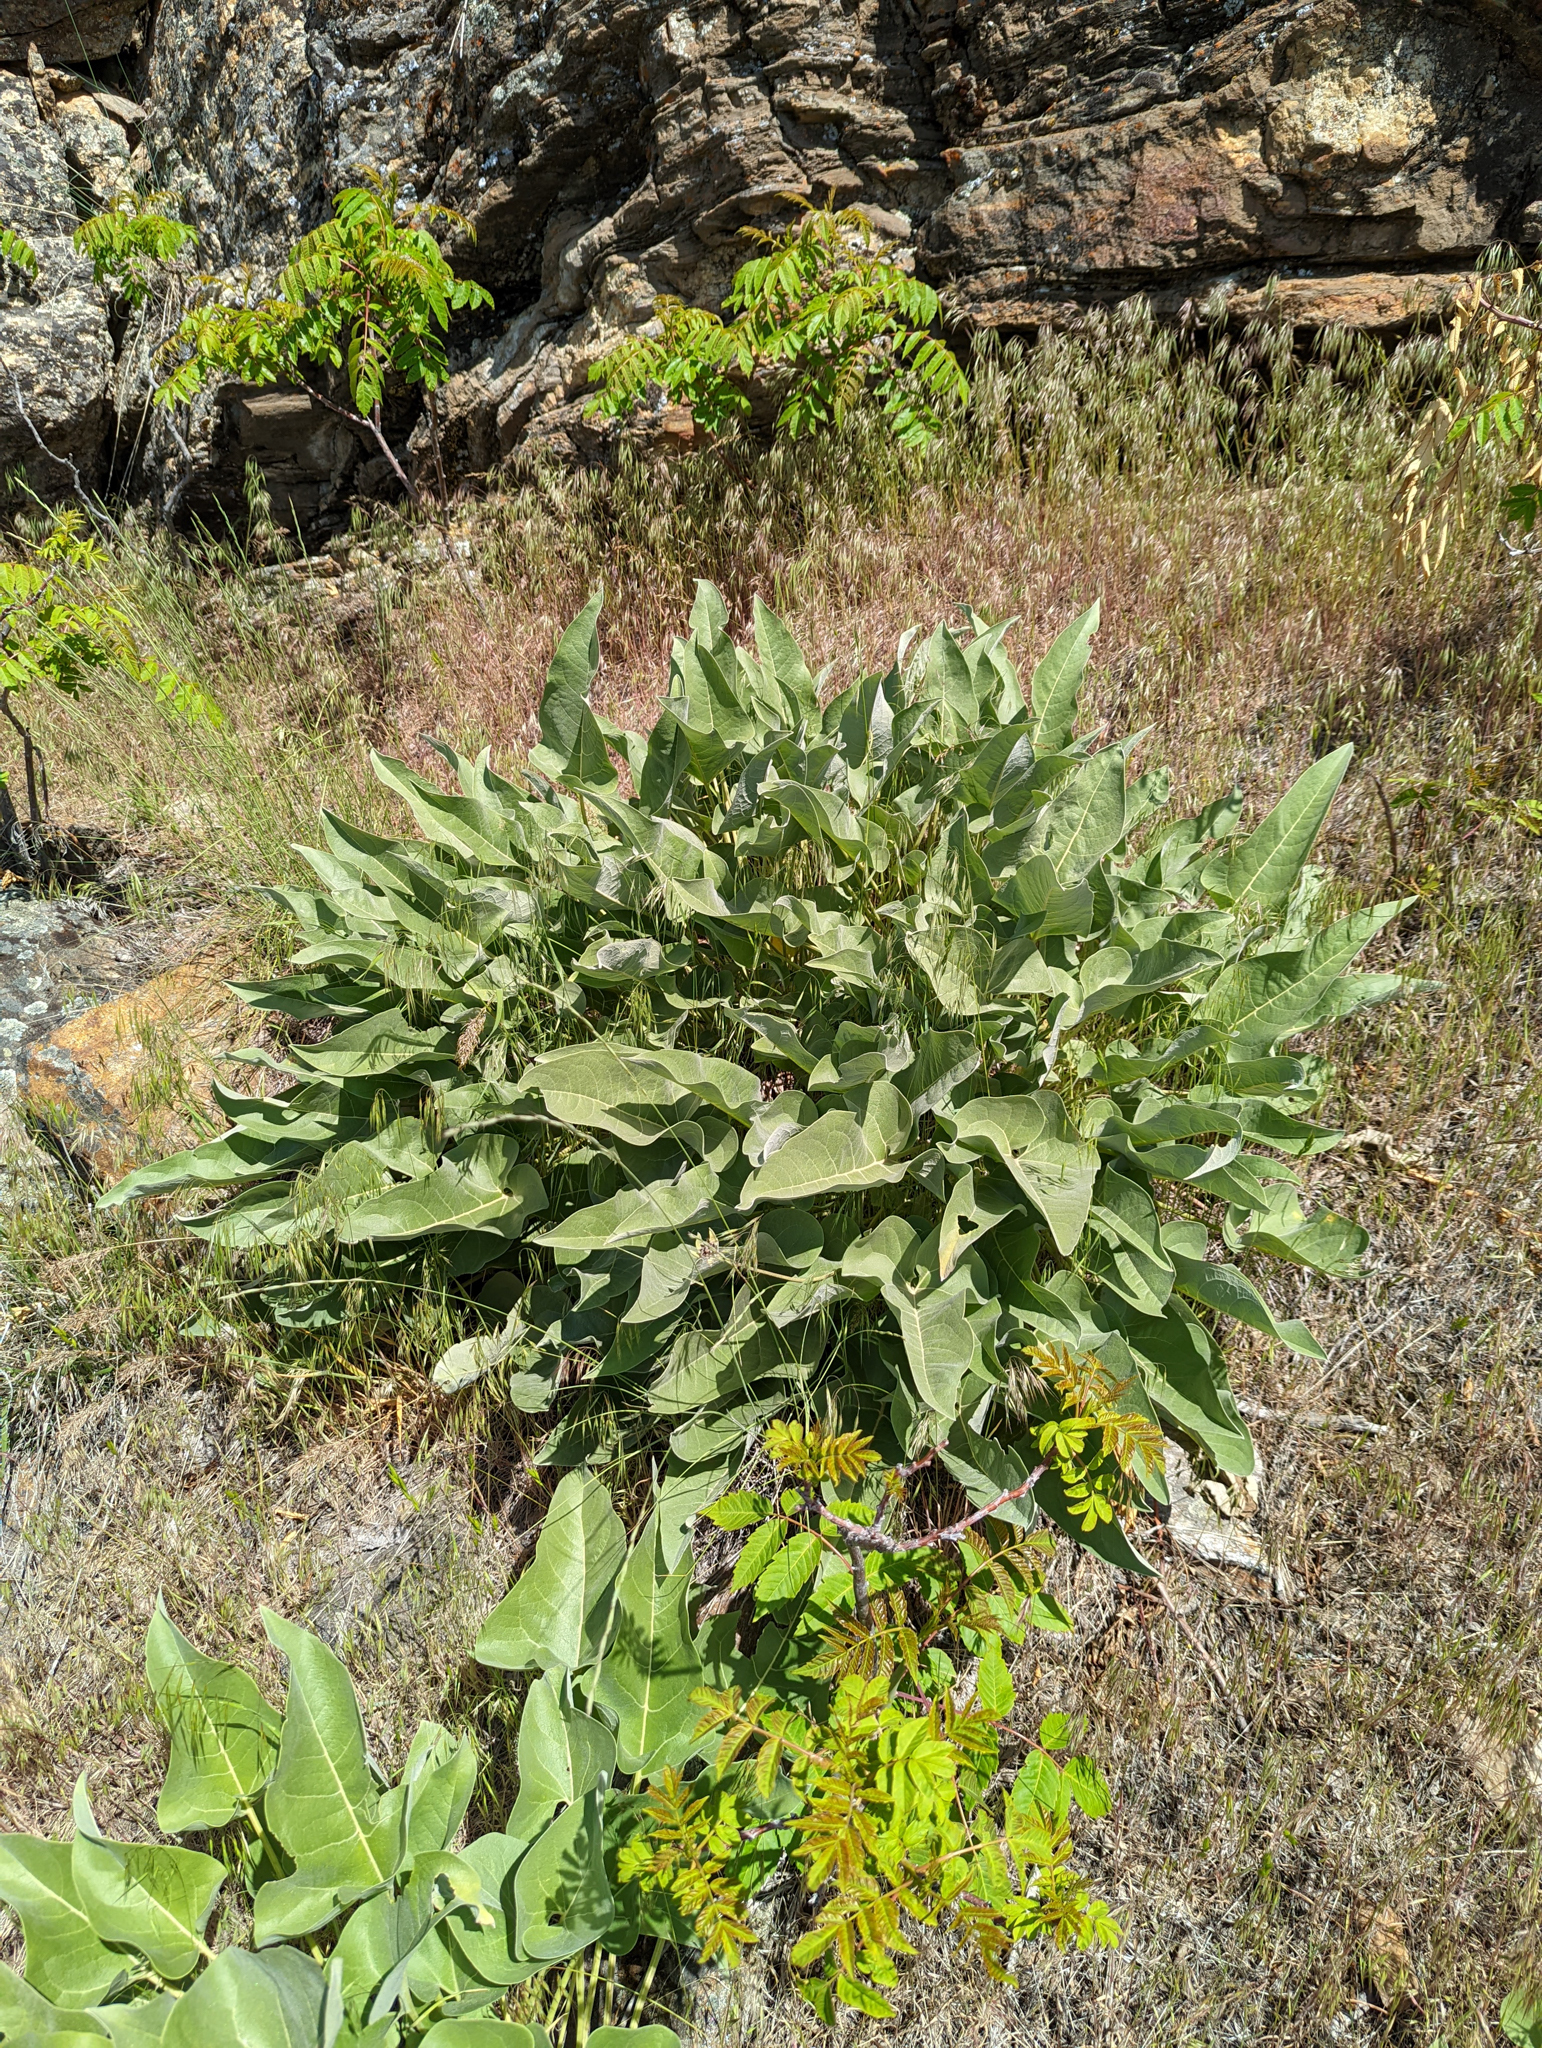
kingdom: Plantae
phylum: Tracheophyta
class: Magnoliopsida
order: Asterales
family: Asteraceae
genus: Wyethia
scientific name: Wyethia sagittata
